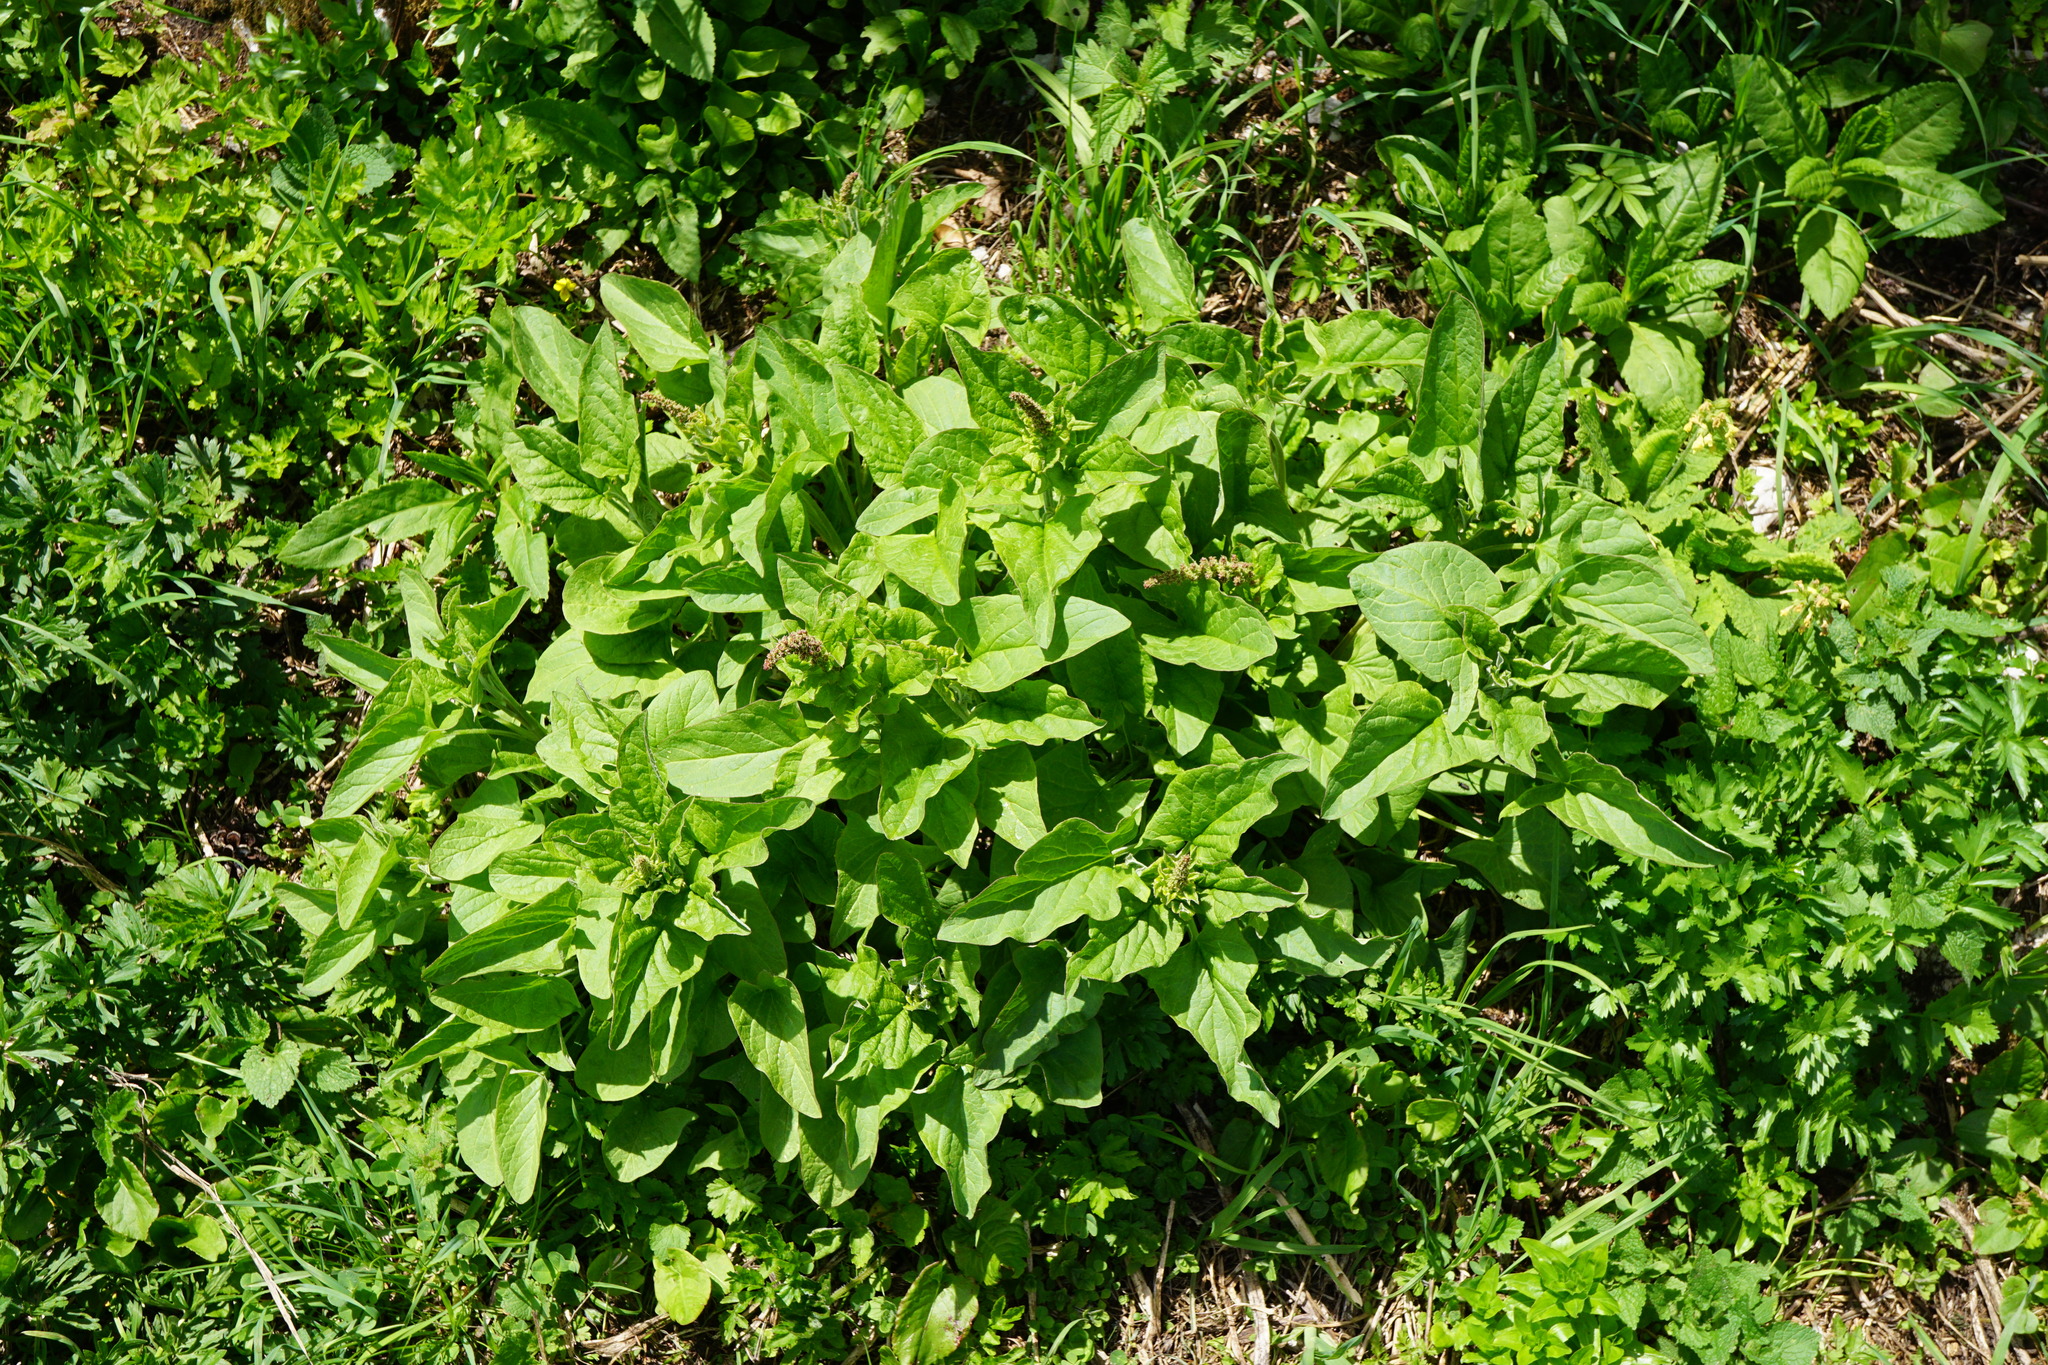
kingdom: Plantae
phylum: Tracheophyta
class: Magnoliopsida
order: Caryophyllales
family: Amaranthaceae
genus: Blitum
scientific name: Blitum bonus-henricus
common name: Good king henry
